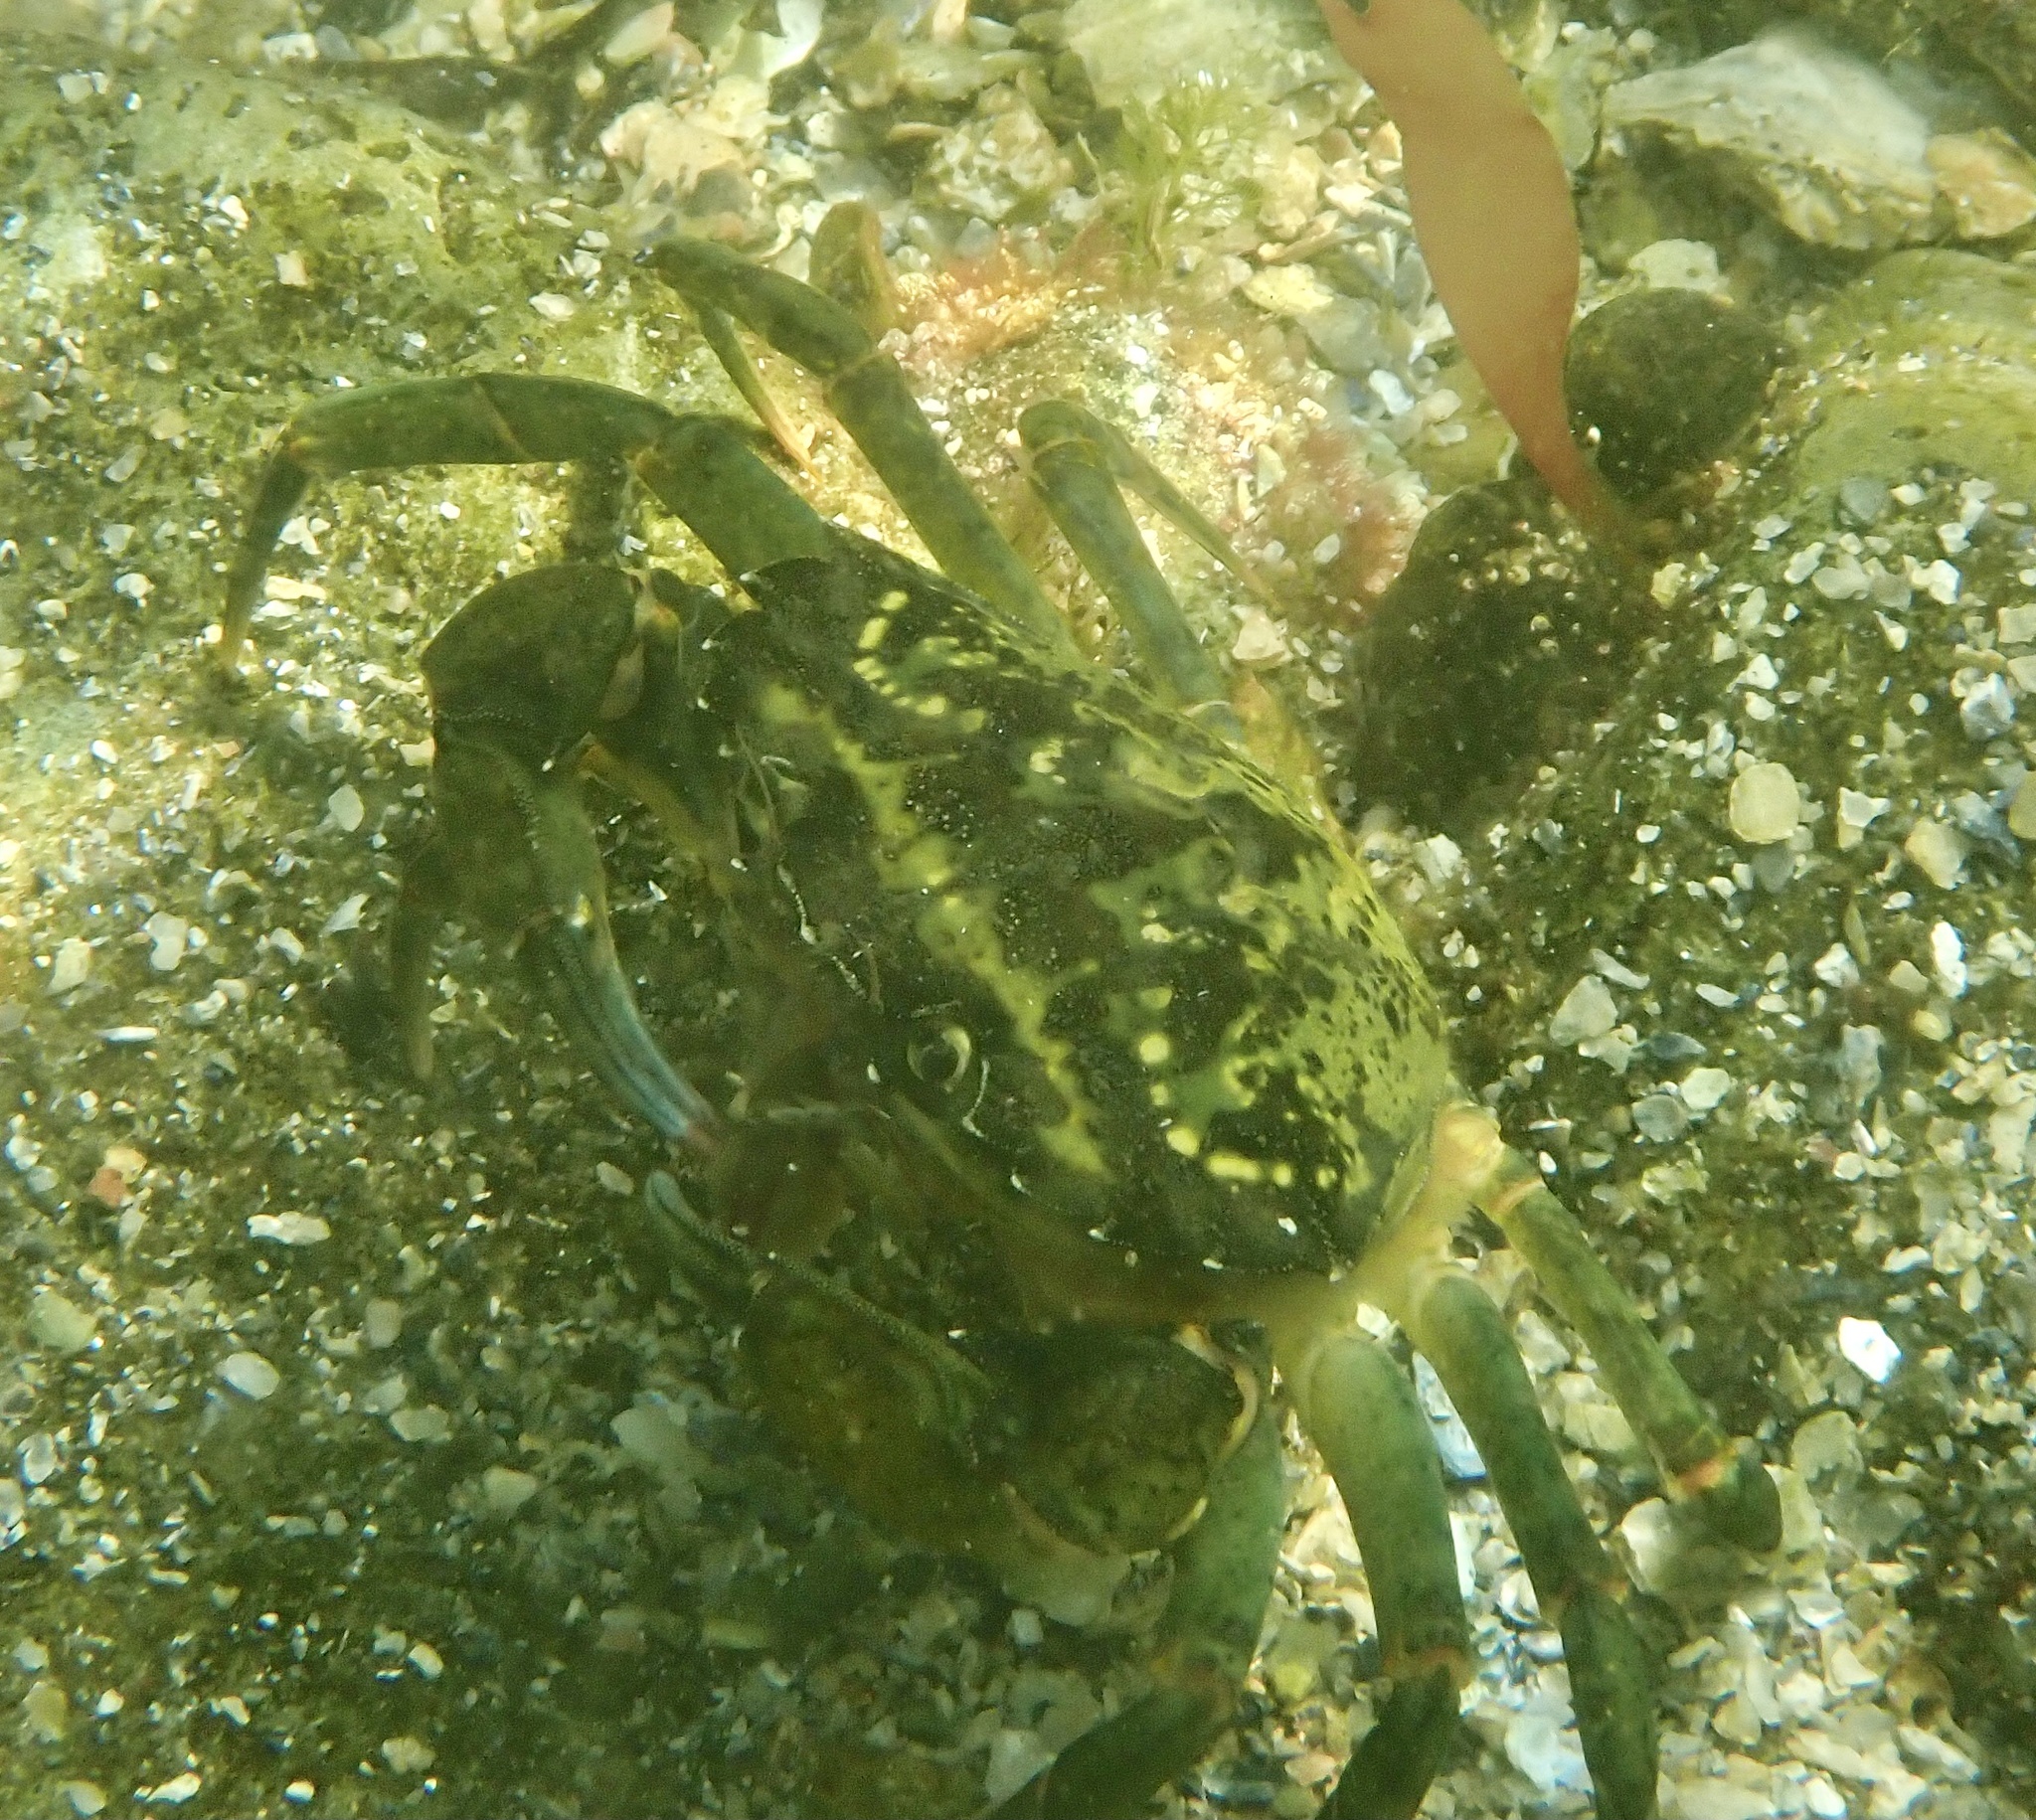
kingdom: Animalia
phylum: Arthropoda
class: Malacostraca
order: Decapoda
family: Carcinidae
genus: Carcinus
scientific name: Carcinus maenas
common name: European green crab
